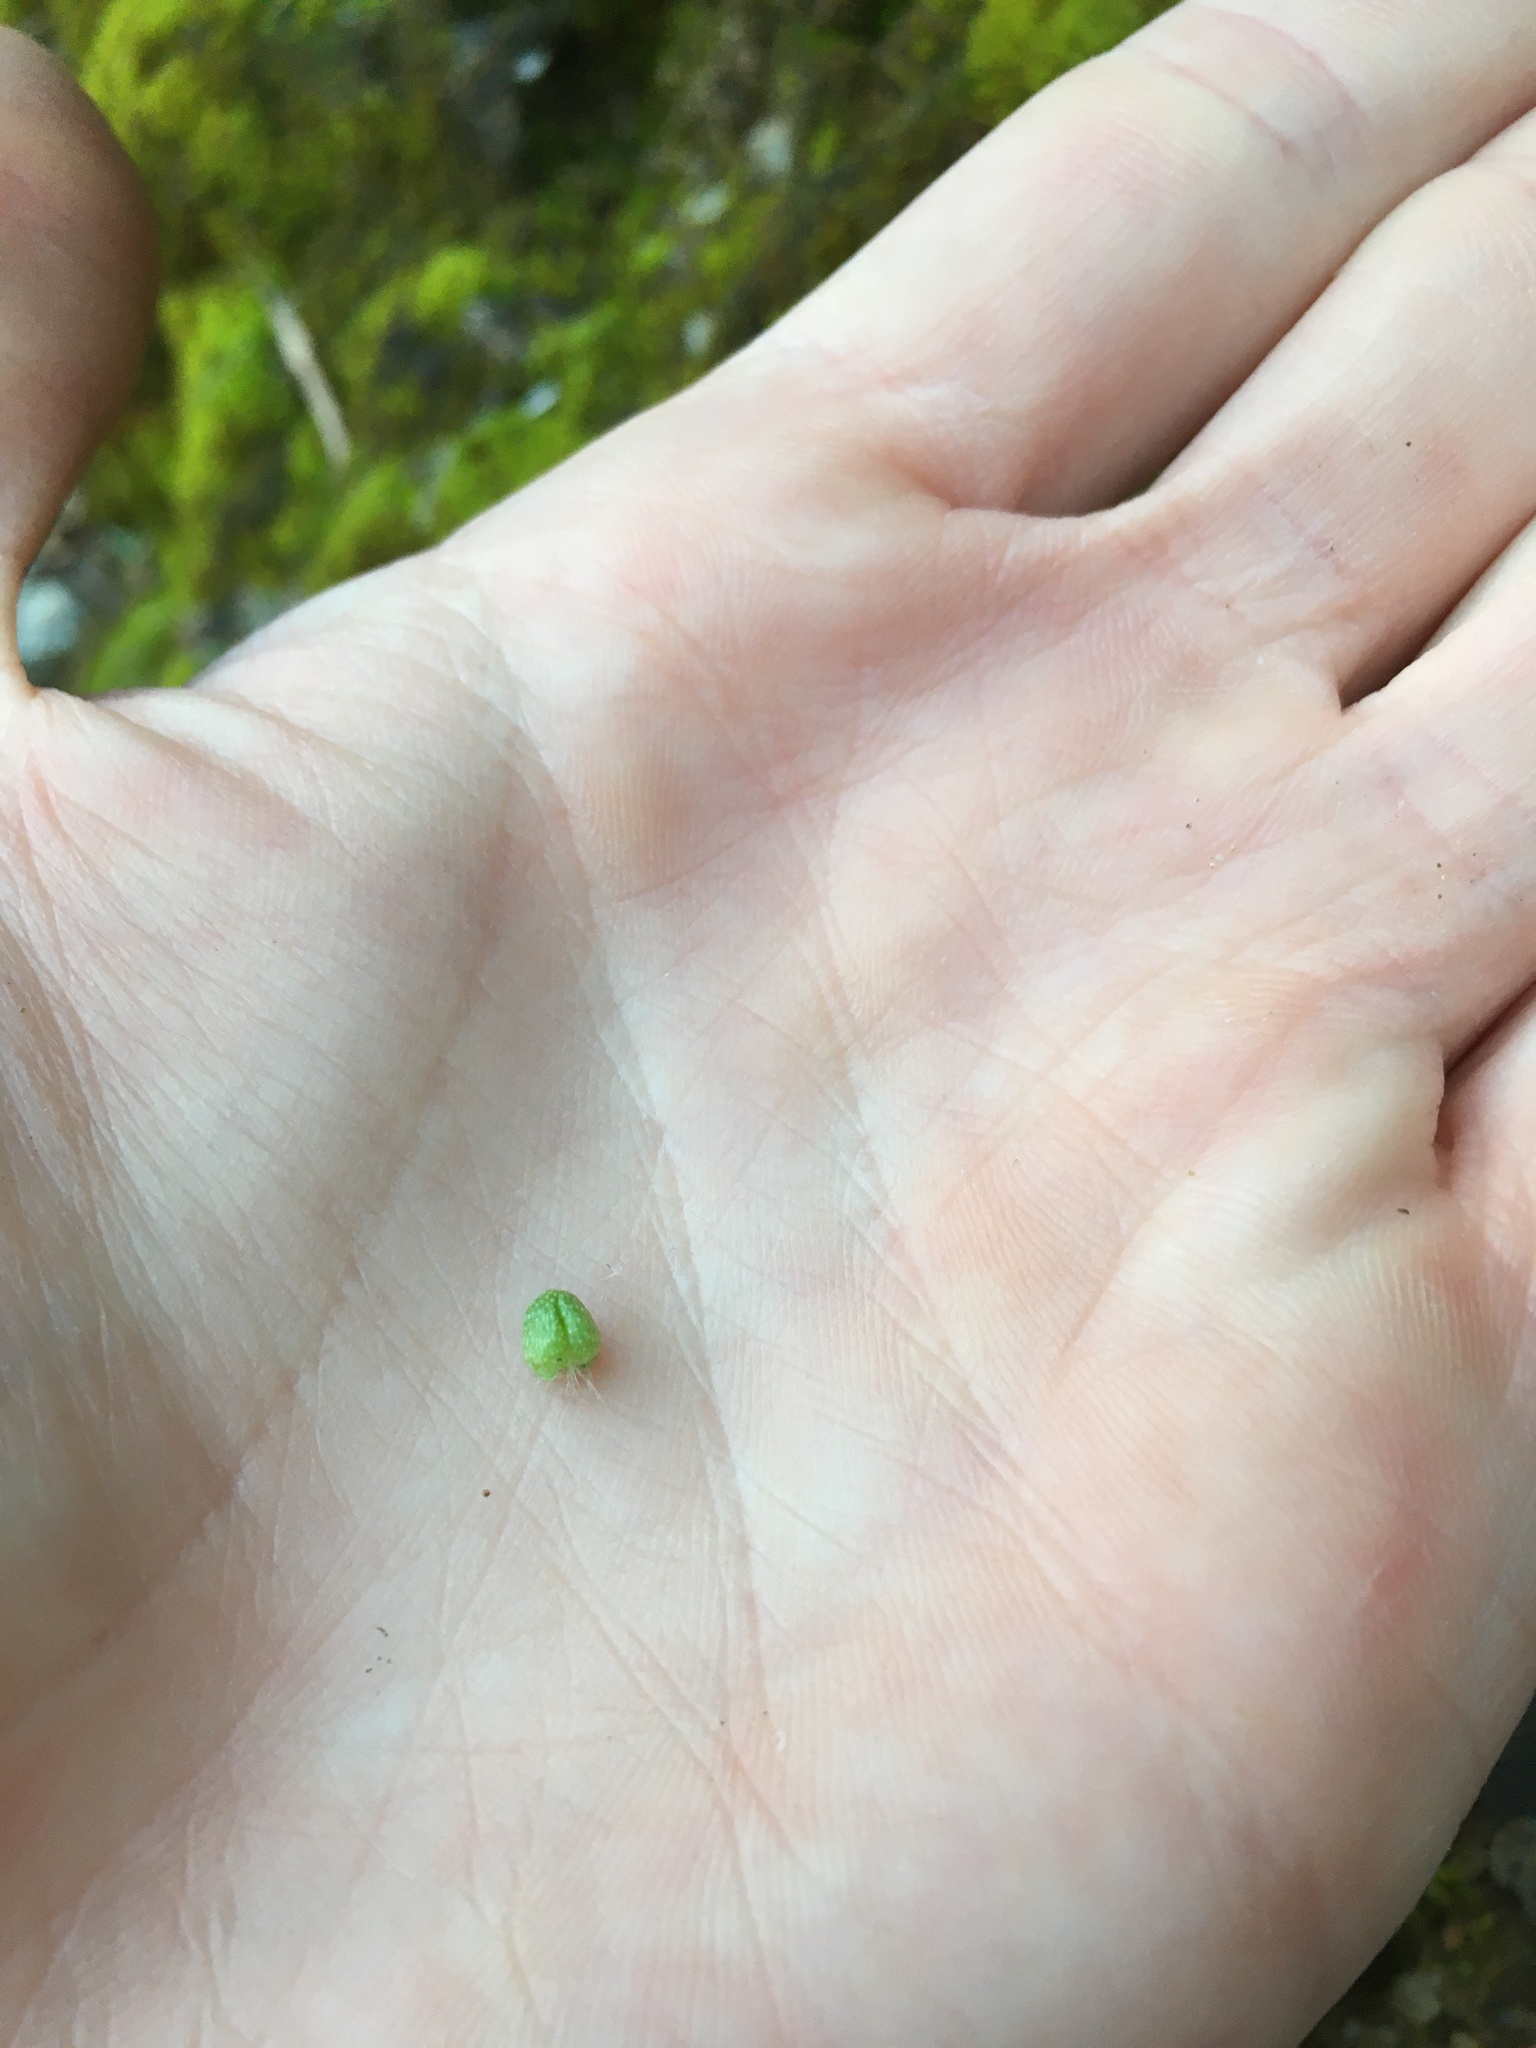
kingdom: Plantae
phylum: Marchantiophyta
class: Marchantiopsida
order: Marchantiales
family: Aytoniaceae
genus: Asterella
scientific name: Asterella californica
